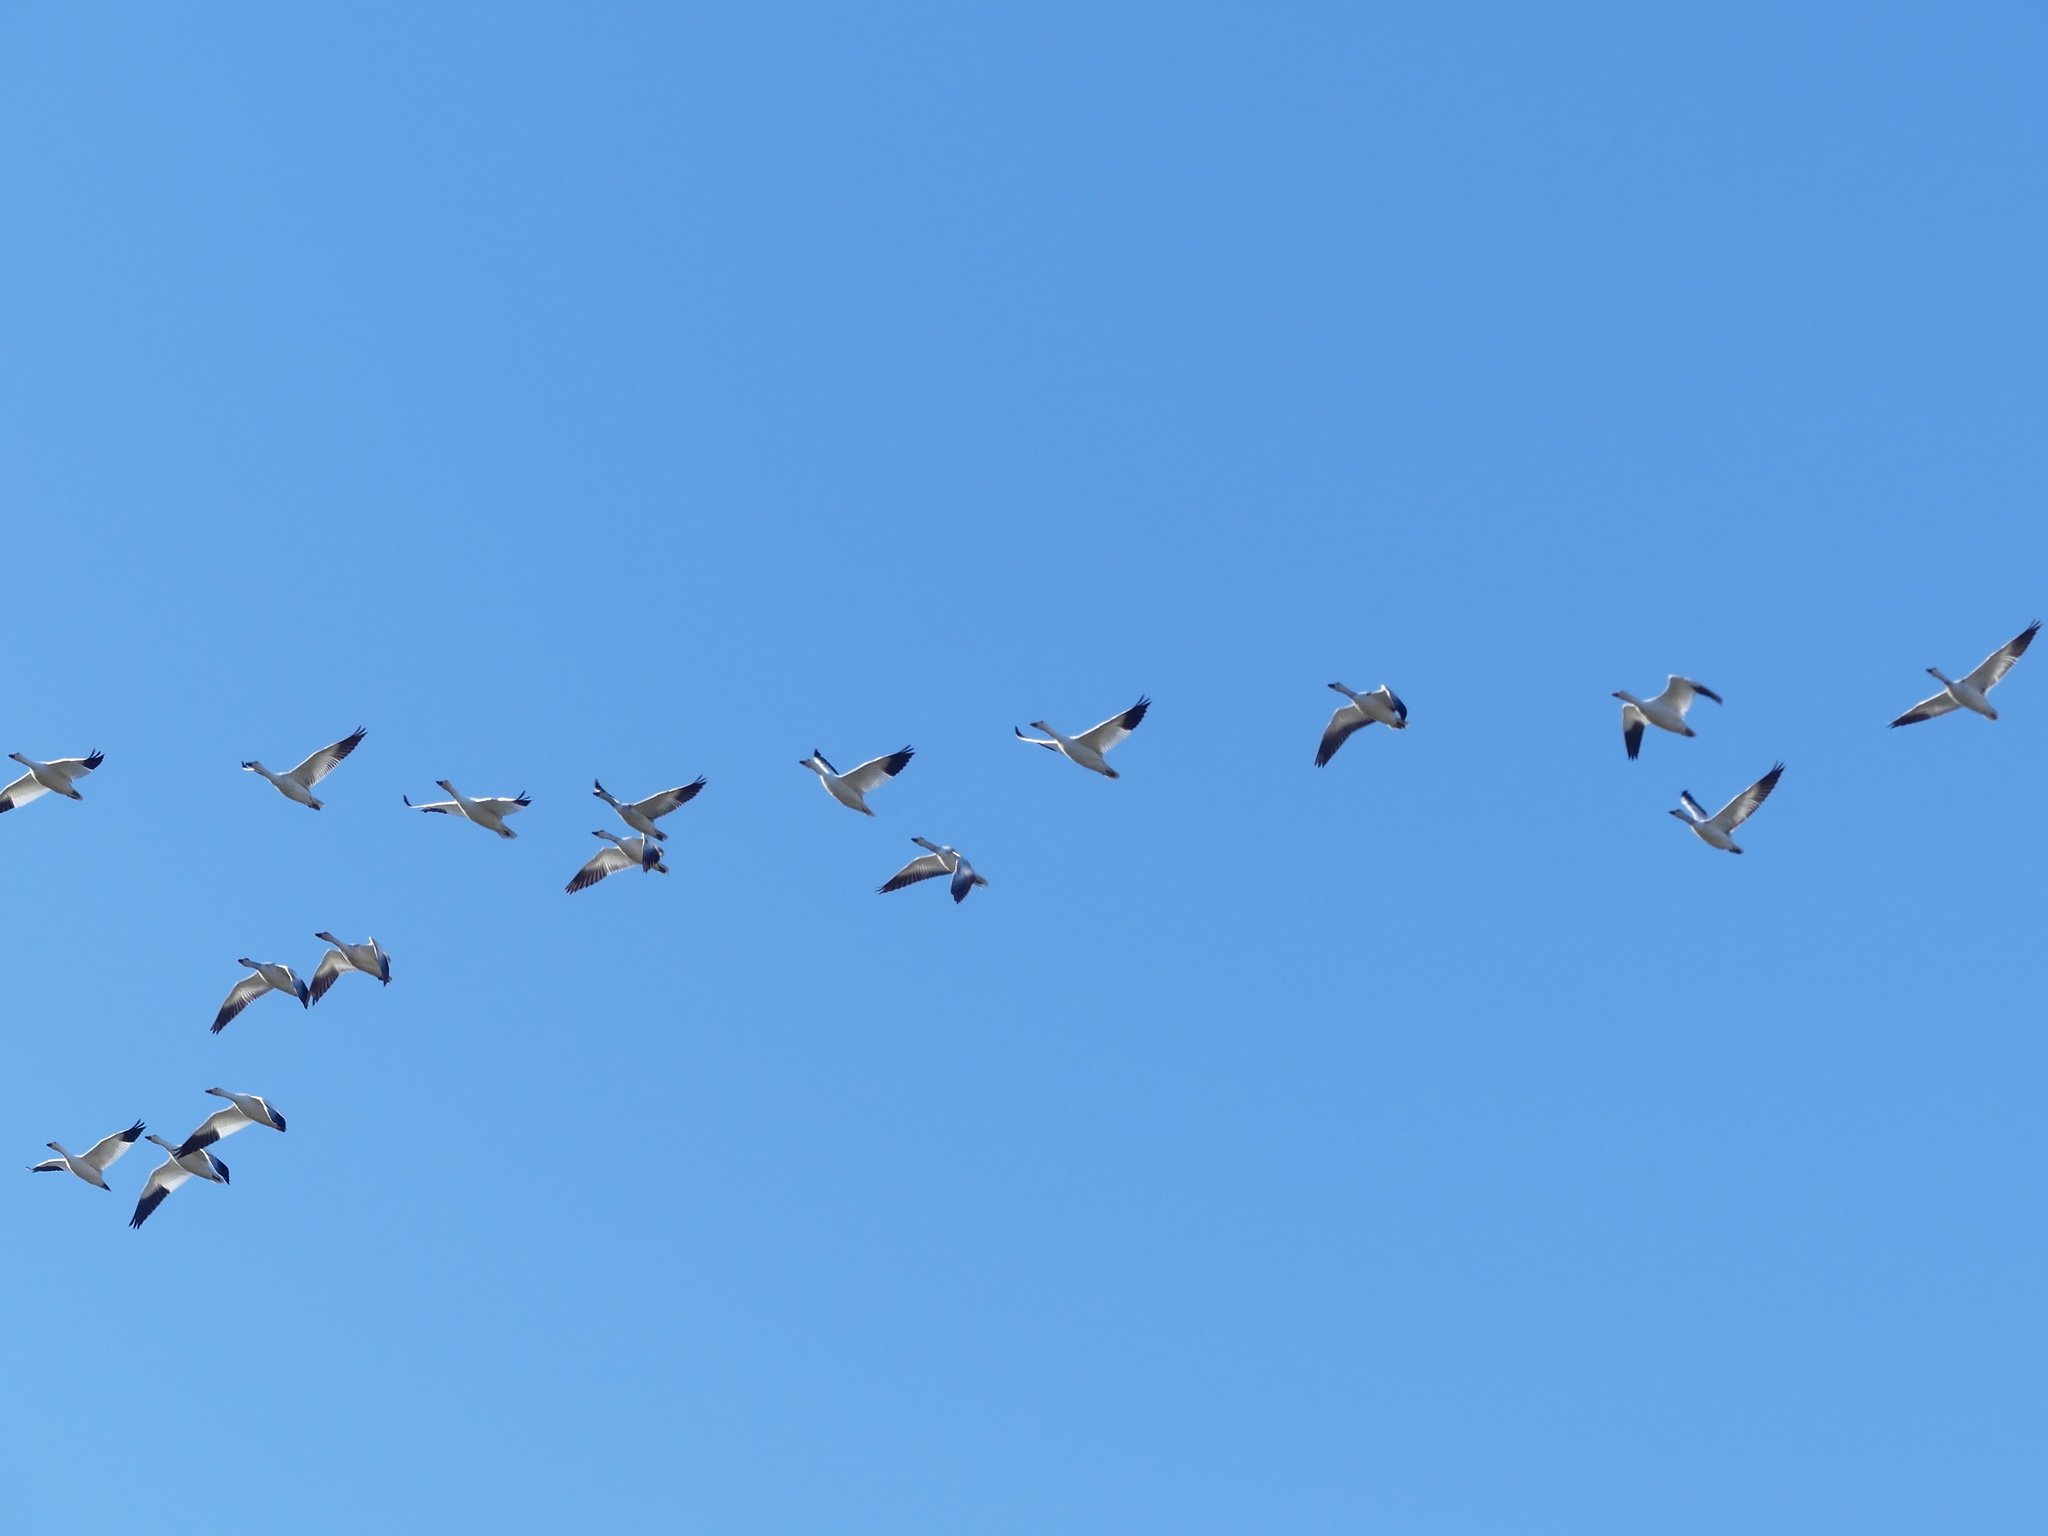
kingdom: Animalia
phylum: Chordata
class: Aves
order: Anseriformes
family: Anatidae
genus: Anser
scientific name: Anser caerulescens
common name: Snow goose
